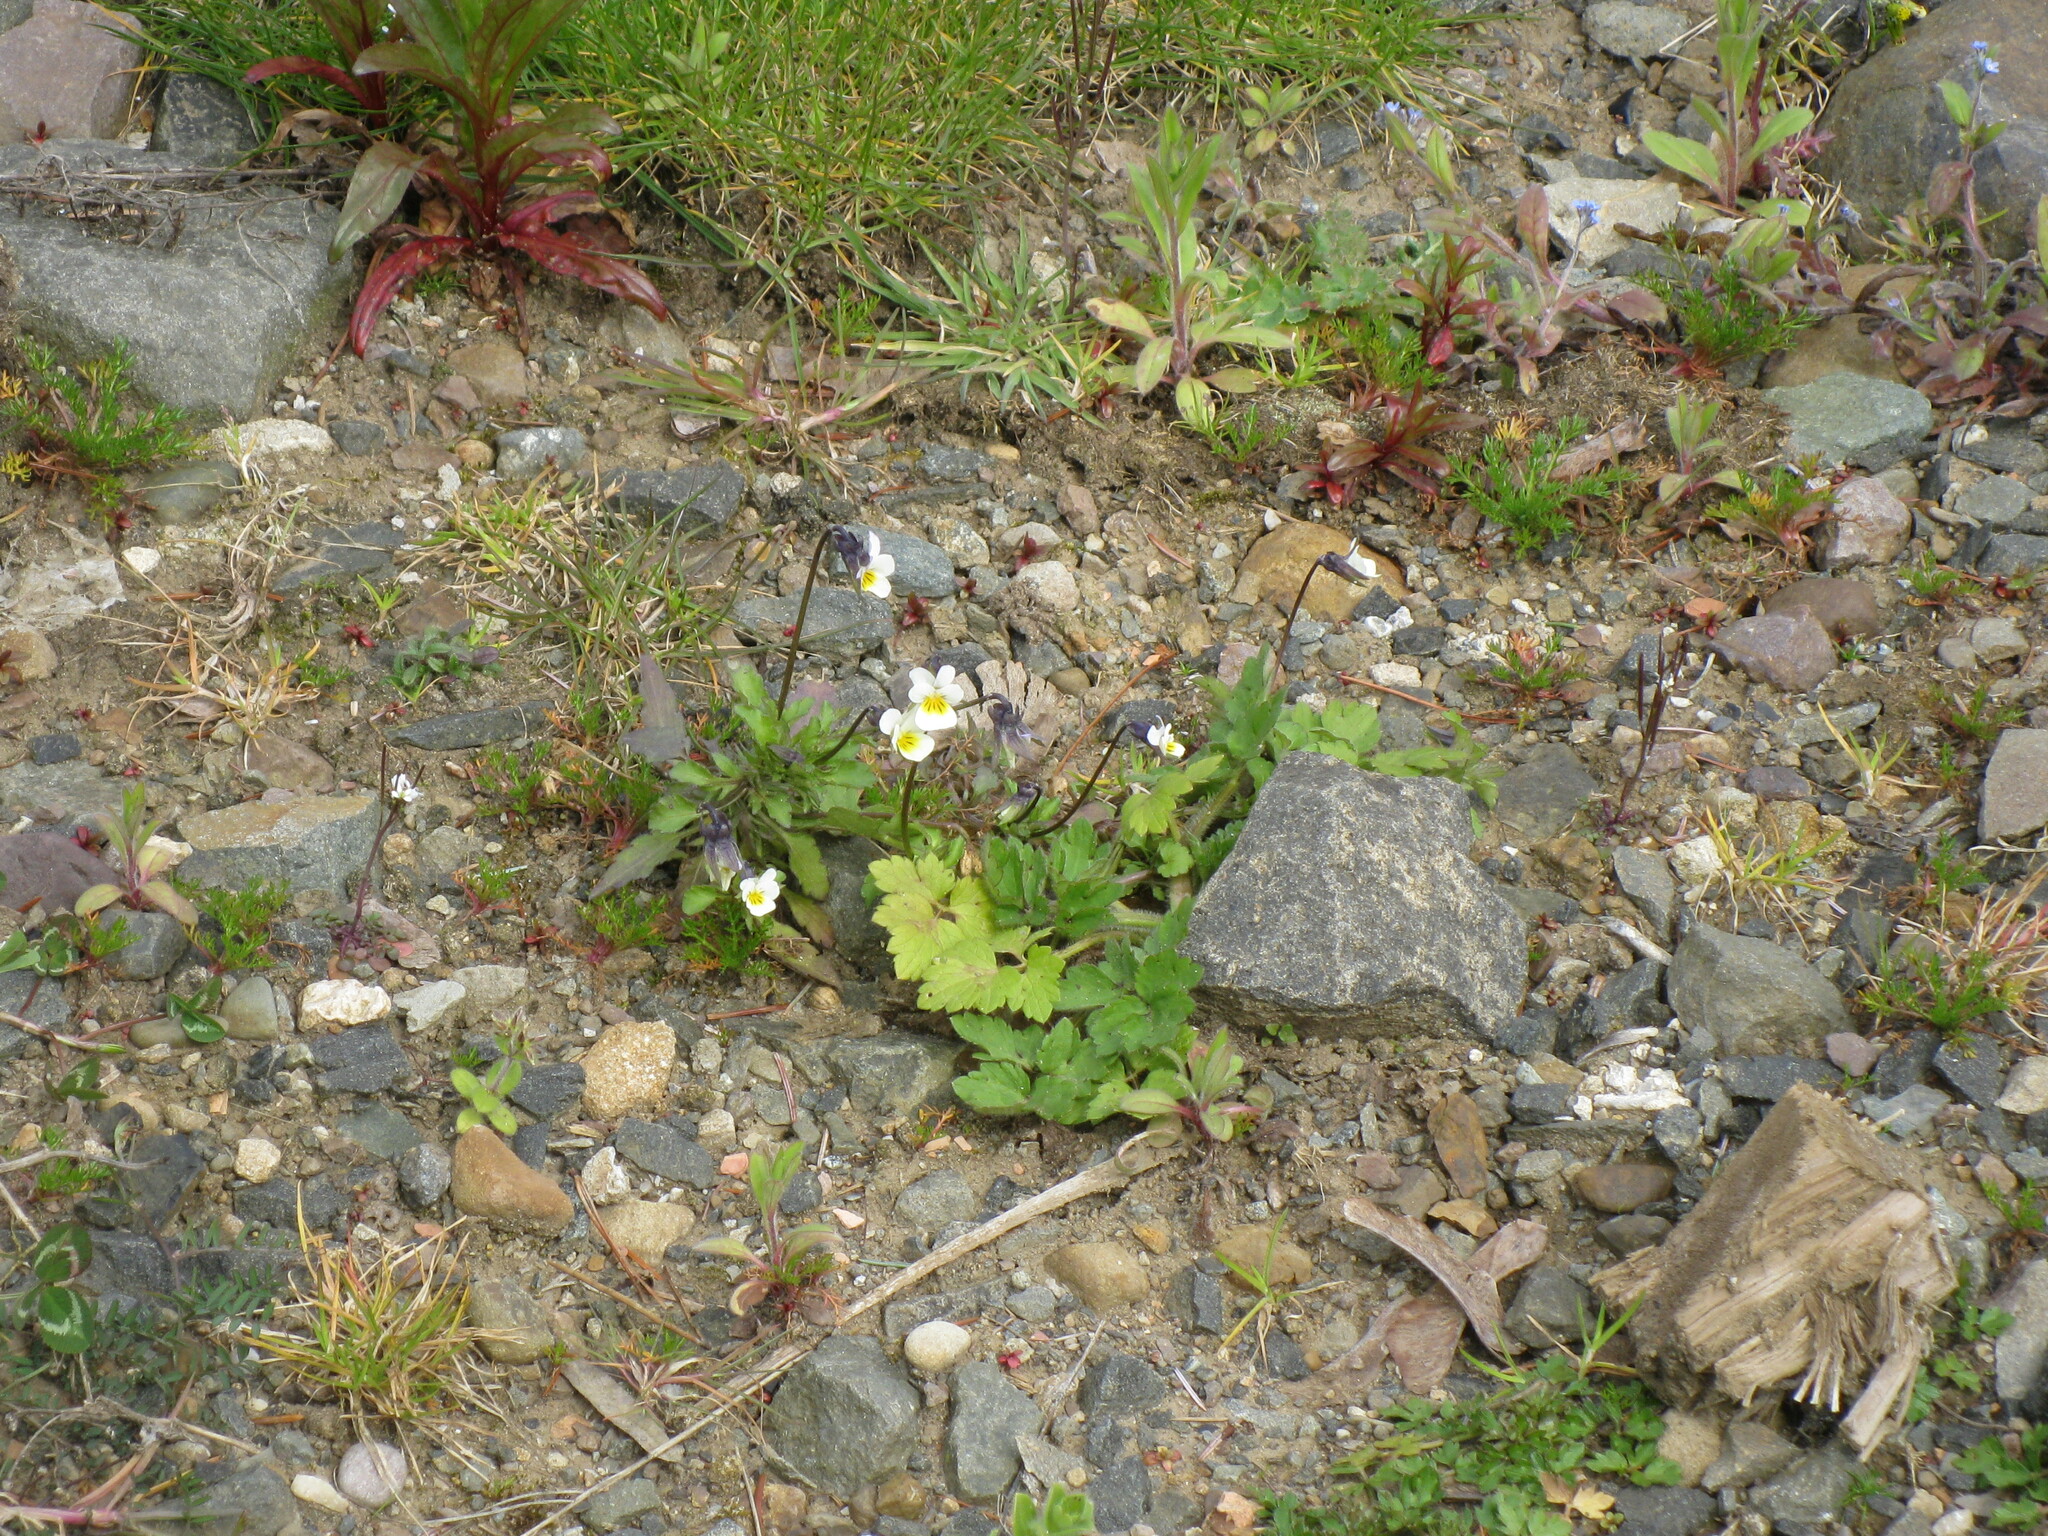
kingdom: Plantae
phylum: Tracheophyta
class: Magnoliopsida
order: Malpighiales
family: Violaceae
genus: Viola
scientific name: Viola arvensis
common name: Field pansy
